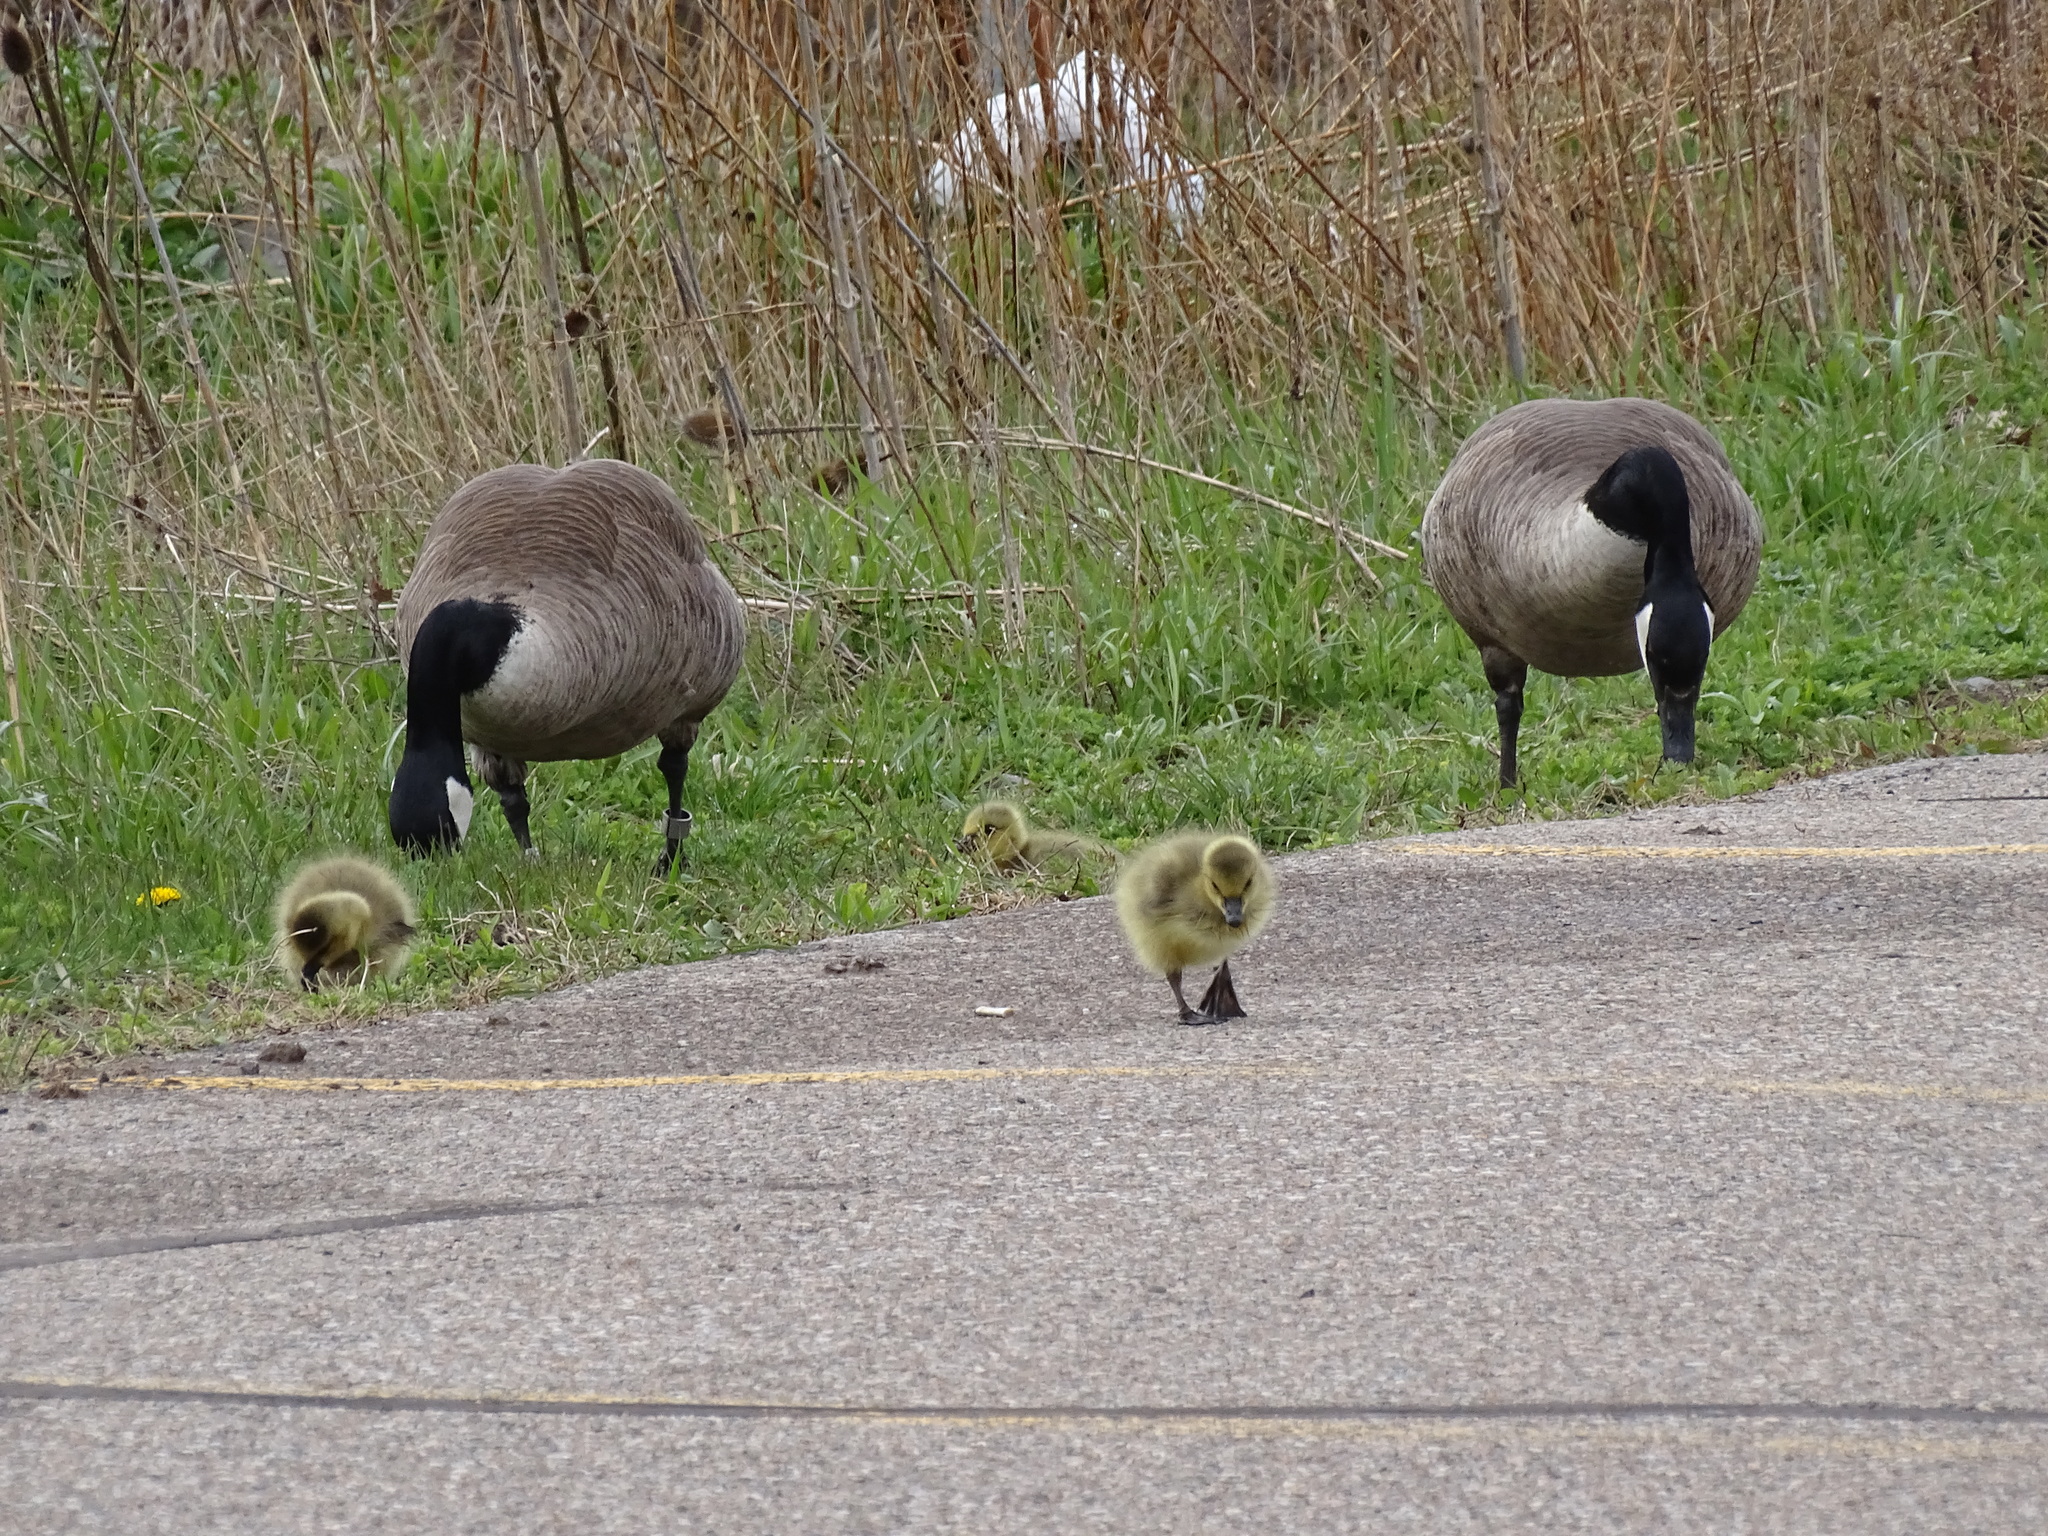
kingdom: Animalia
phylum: Chordata
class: Aves
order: Anseriformes
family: Anatidae
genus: Branta
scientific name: Branta canadensis
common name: Canada goose
